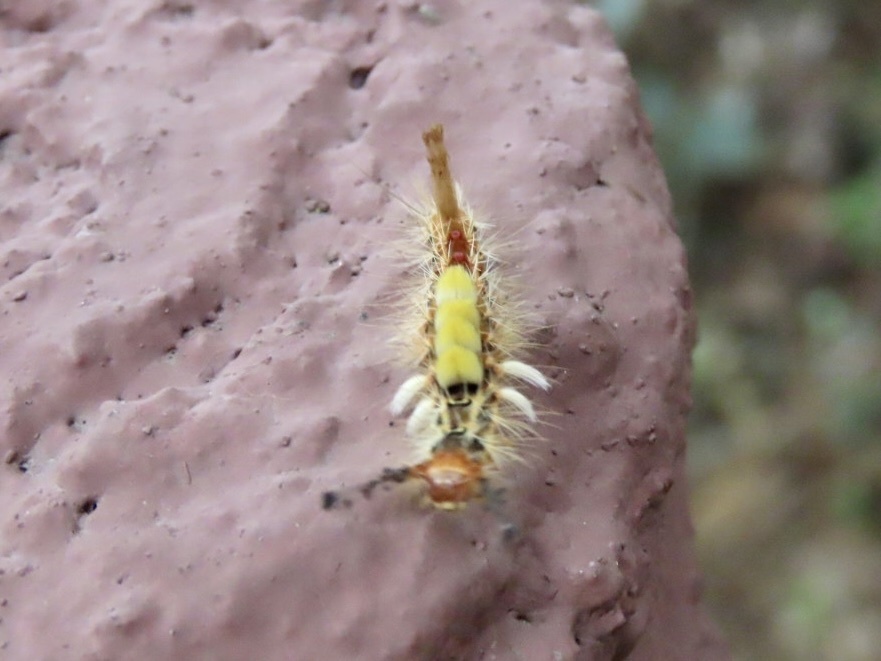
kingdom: Animalia
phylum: Arthropoda
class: Insecta
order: Lepidoptera
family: Erebidae
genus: Orgyia
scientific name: Orgyia postica
